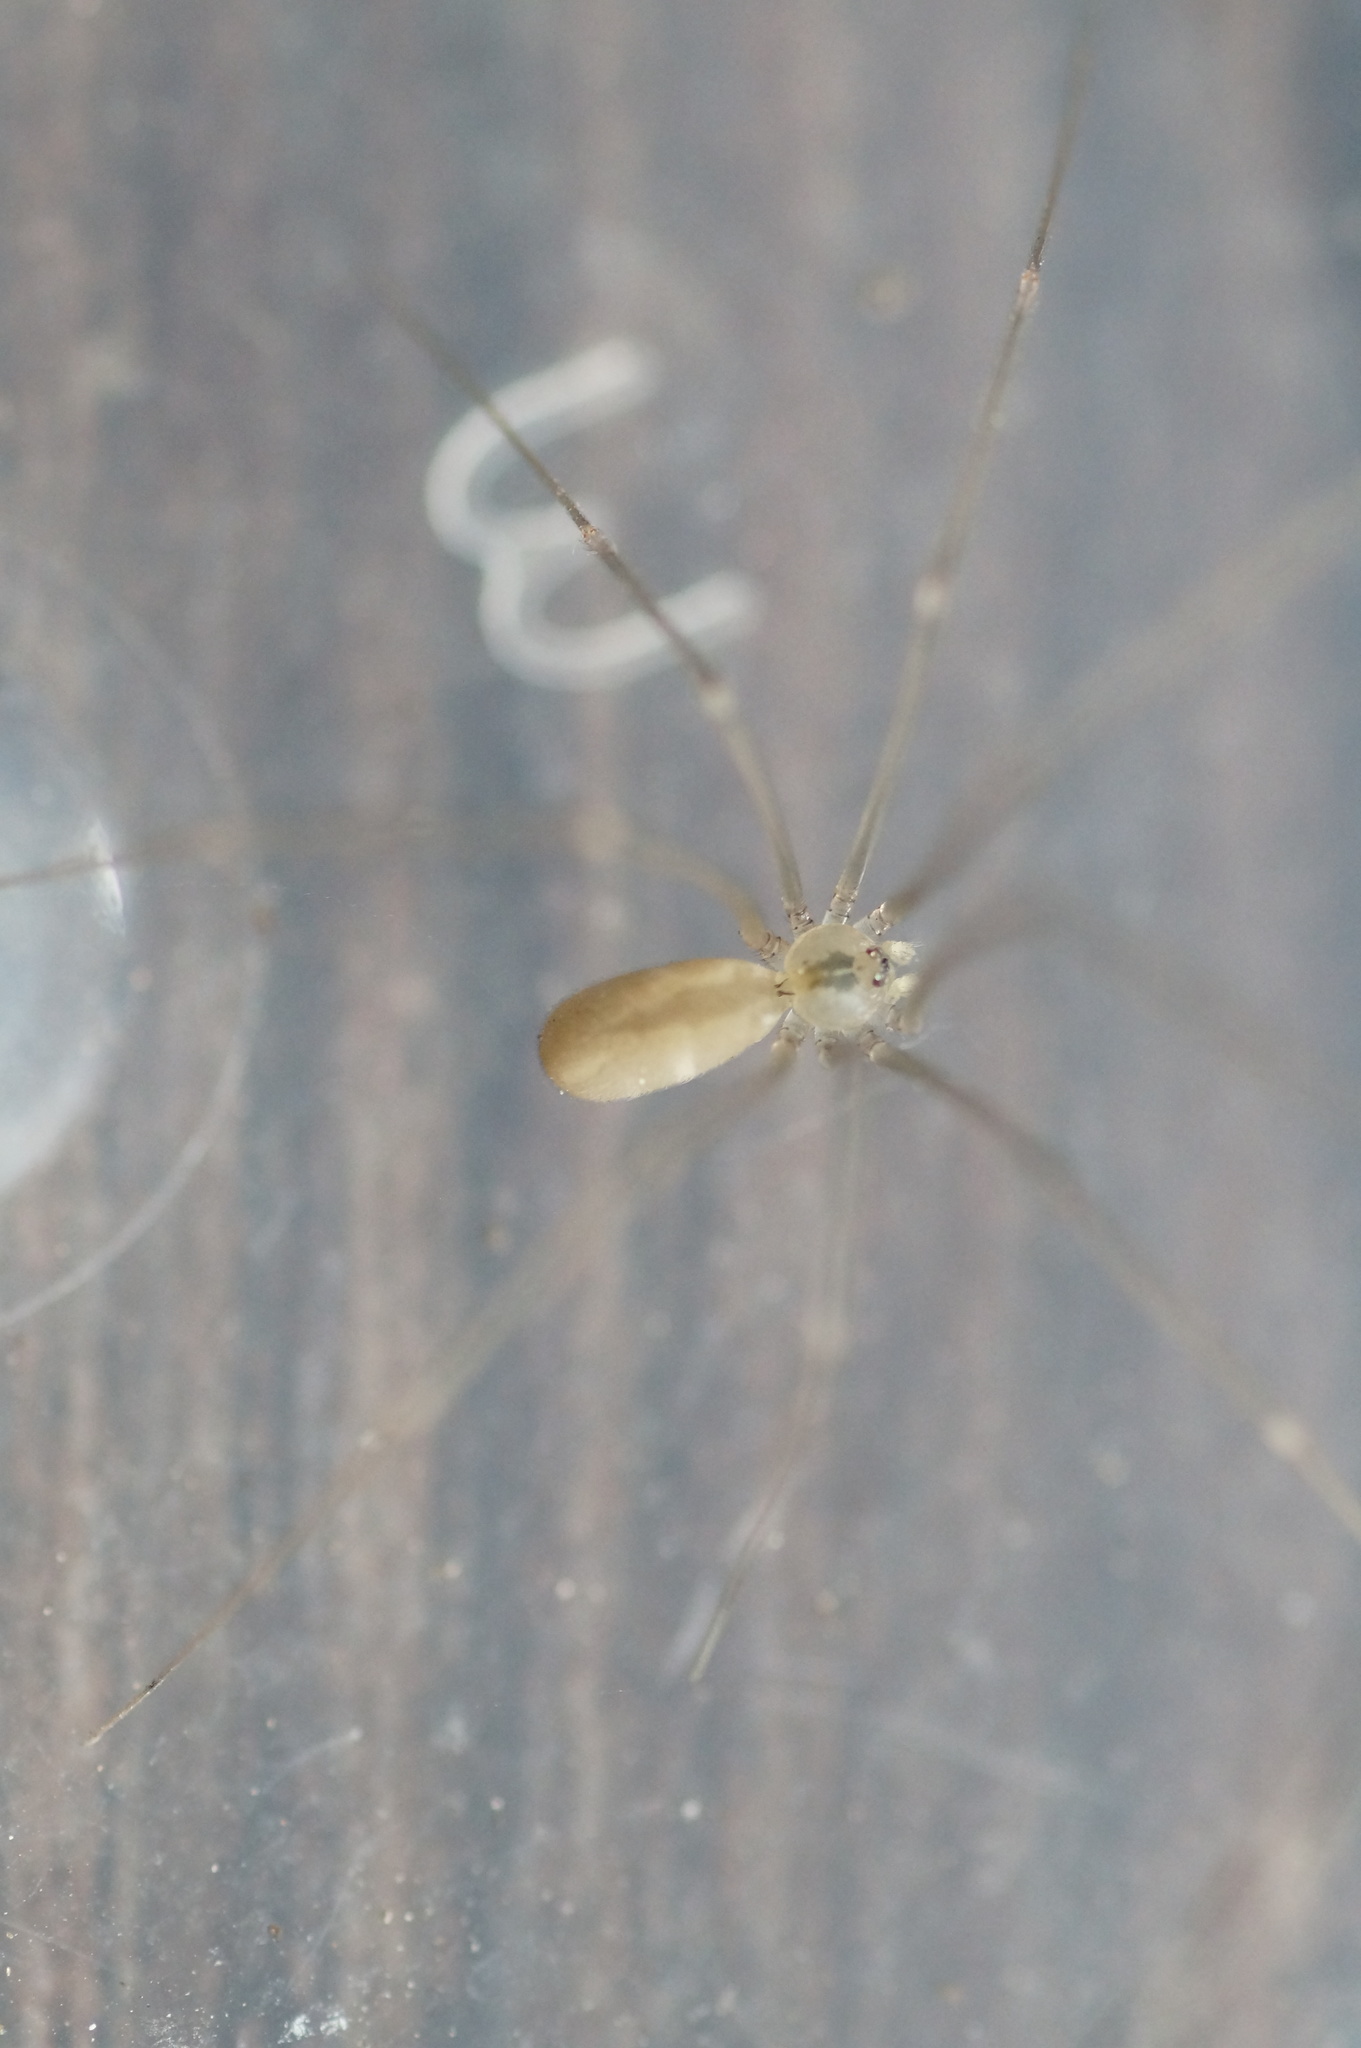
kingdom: Animalia
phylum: Arthropoda
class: Arachnida
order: Araneae
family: Pholcidae
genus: Pholcus
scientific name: Pholcus ponticus
